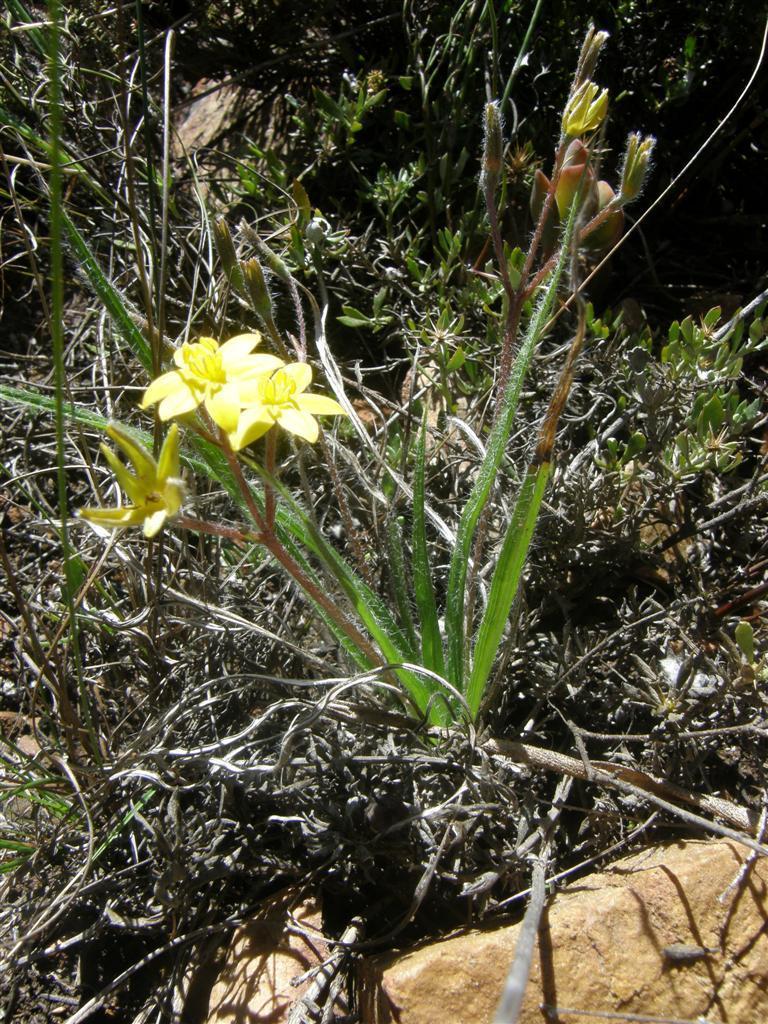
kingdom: Plantae
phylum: Tracheophyta
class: Liliopsida
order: Asparagales
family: Hypoxidaceae
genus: Hypoxis
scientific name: Hypoxis floccosa
